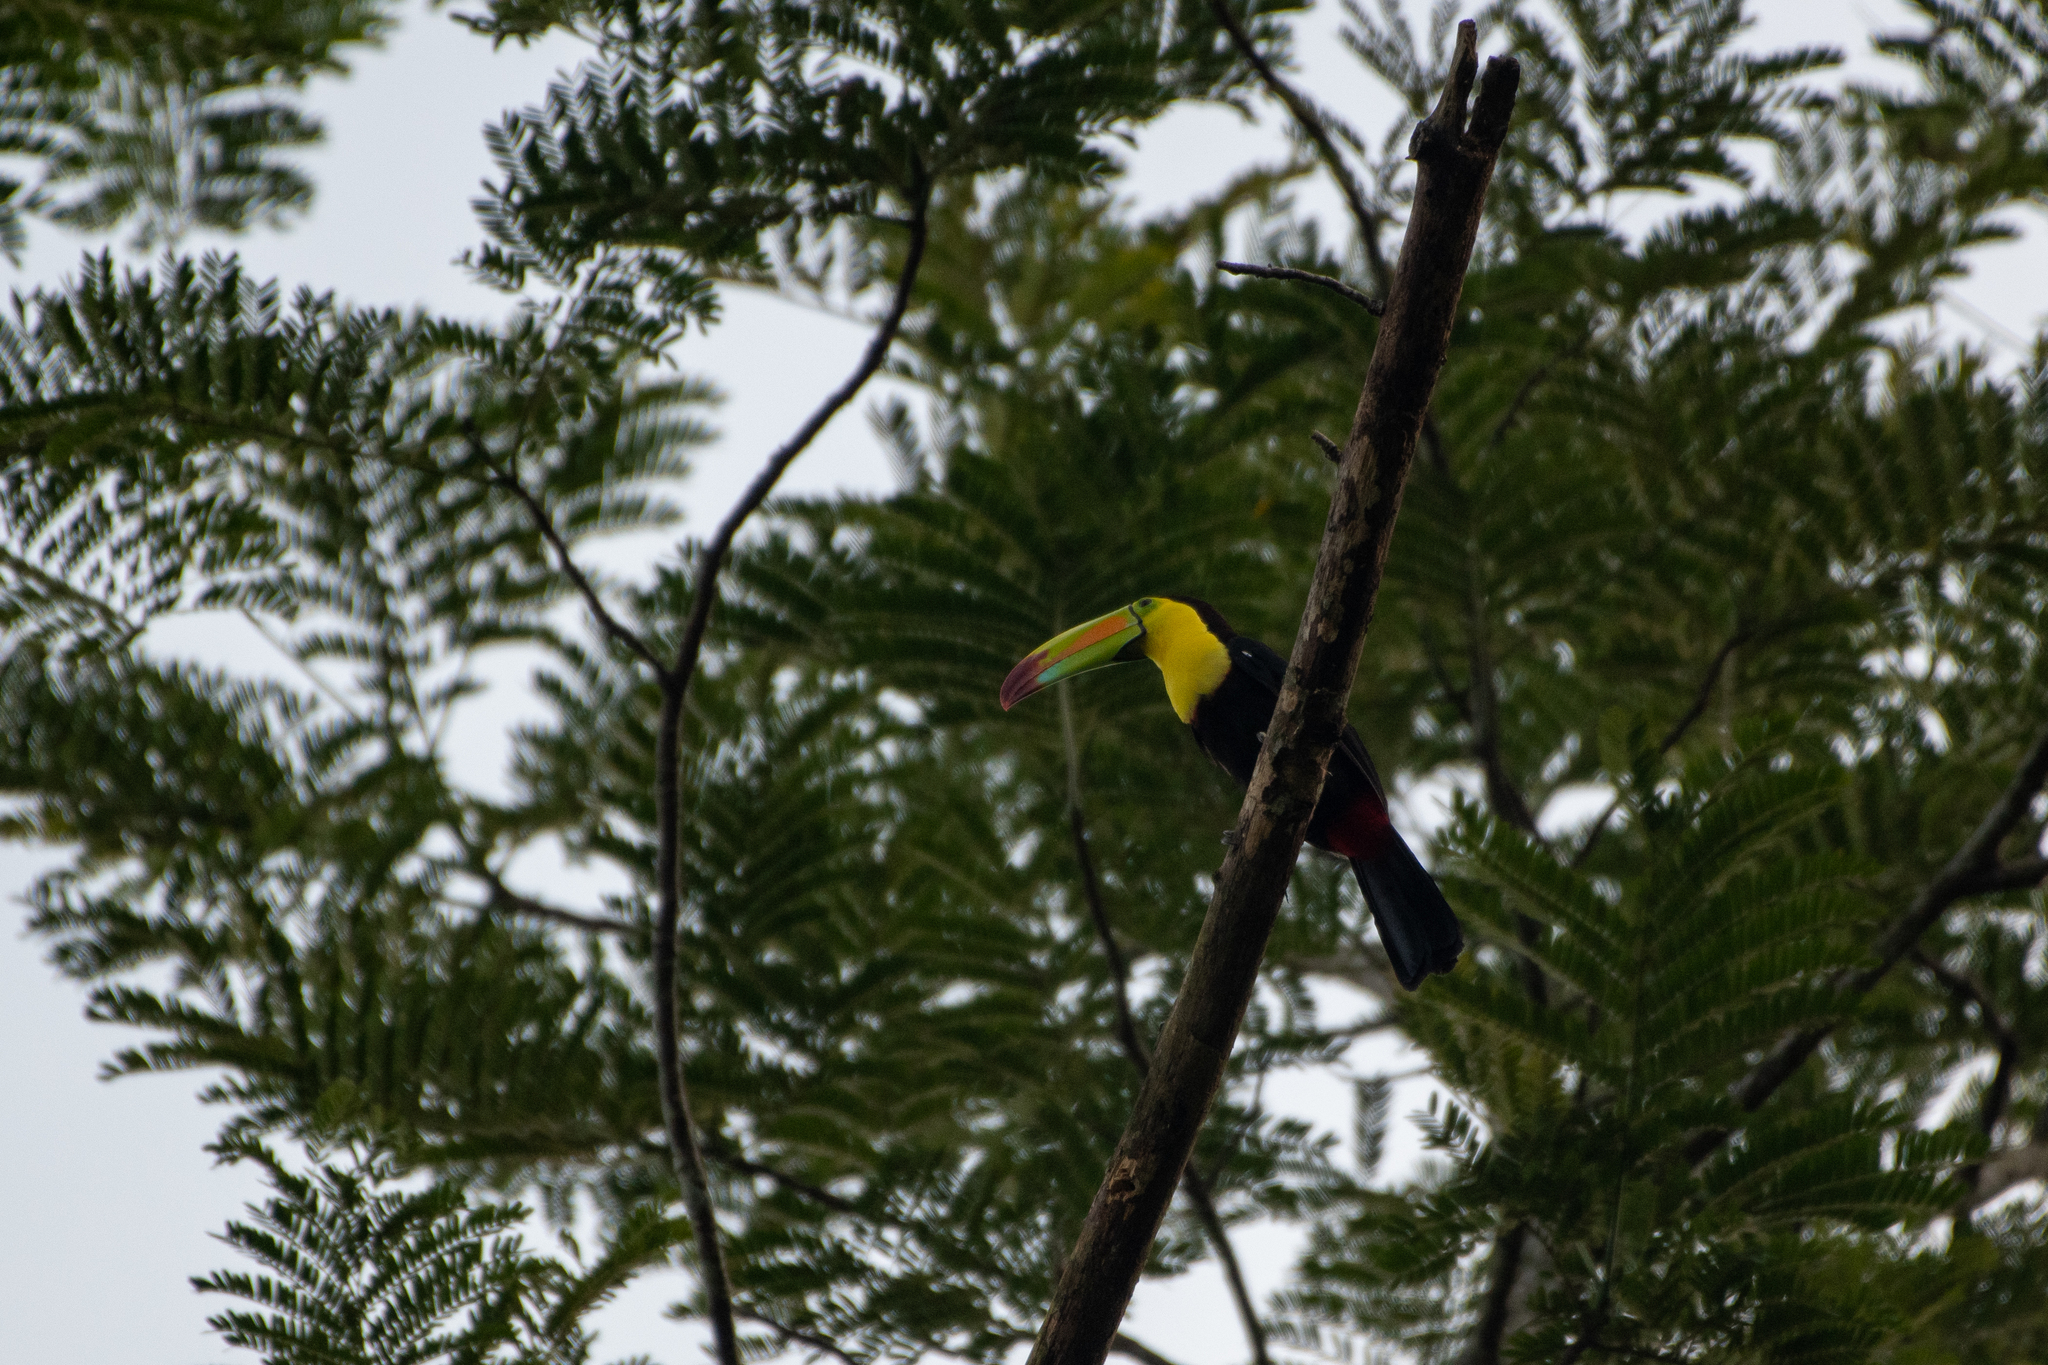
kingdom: Animalia
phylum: Chordata
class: Aves
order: Piciformes
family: Ramphastidae
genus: Ramphastos
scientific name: Ramphastos sulfuratus
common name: Keel-billed toucan
